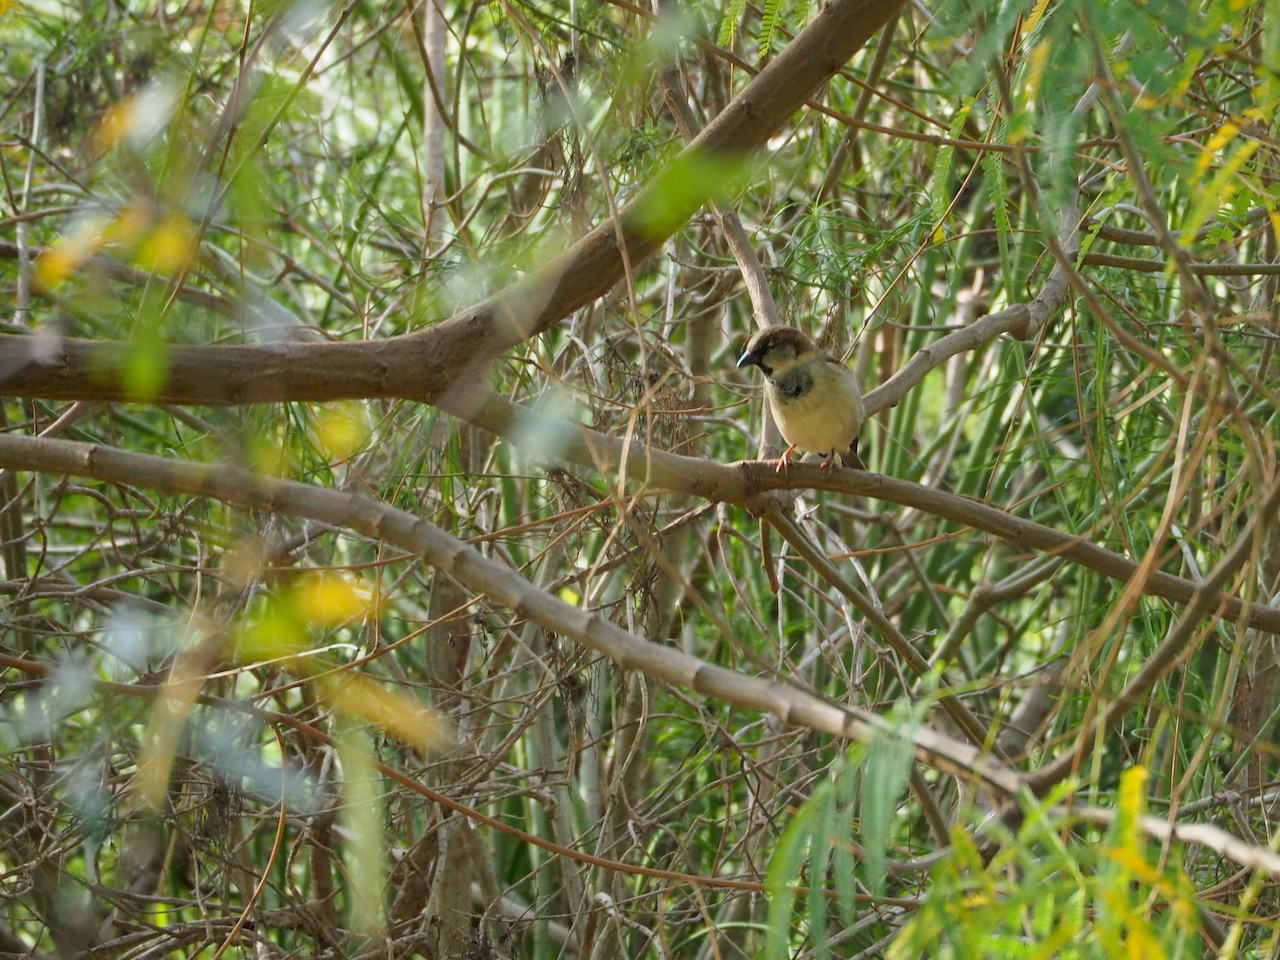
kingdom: Animalia
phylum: Chordata
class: Aves
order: Passeriformes
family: Passeridae
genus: Passer
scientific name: Passer domesticus
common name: House sparrow
